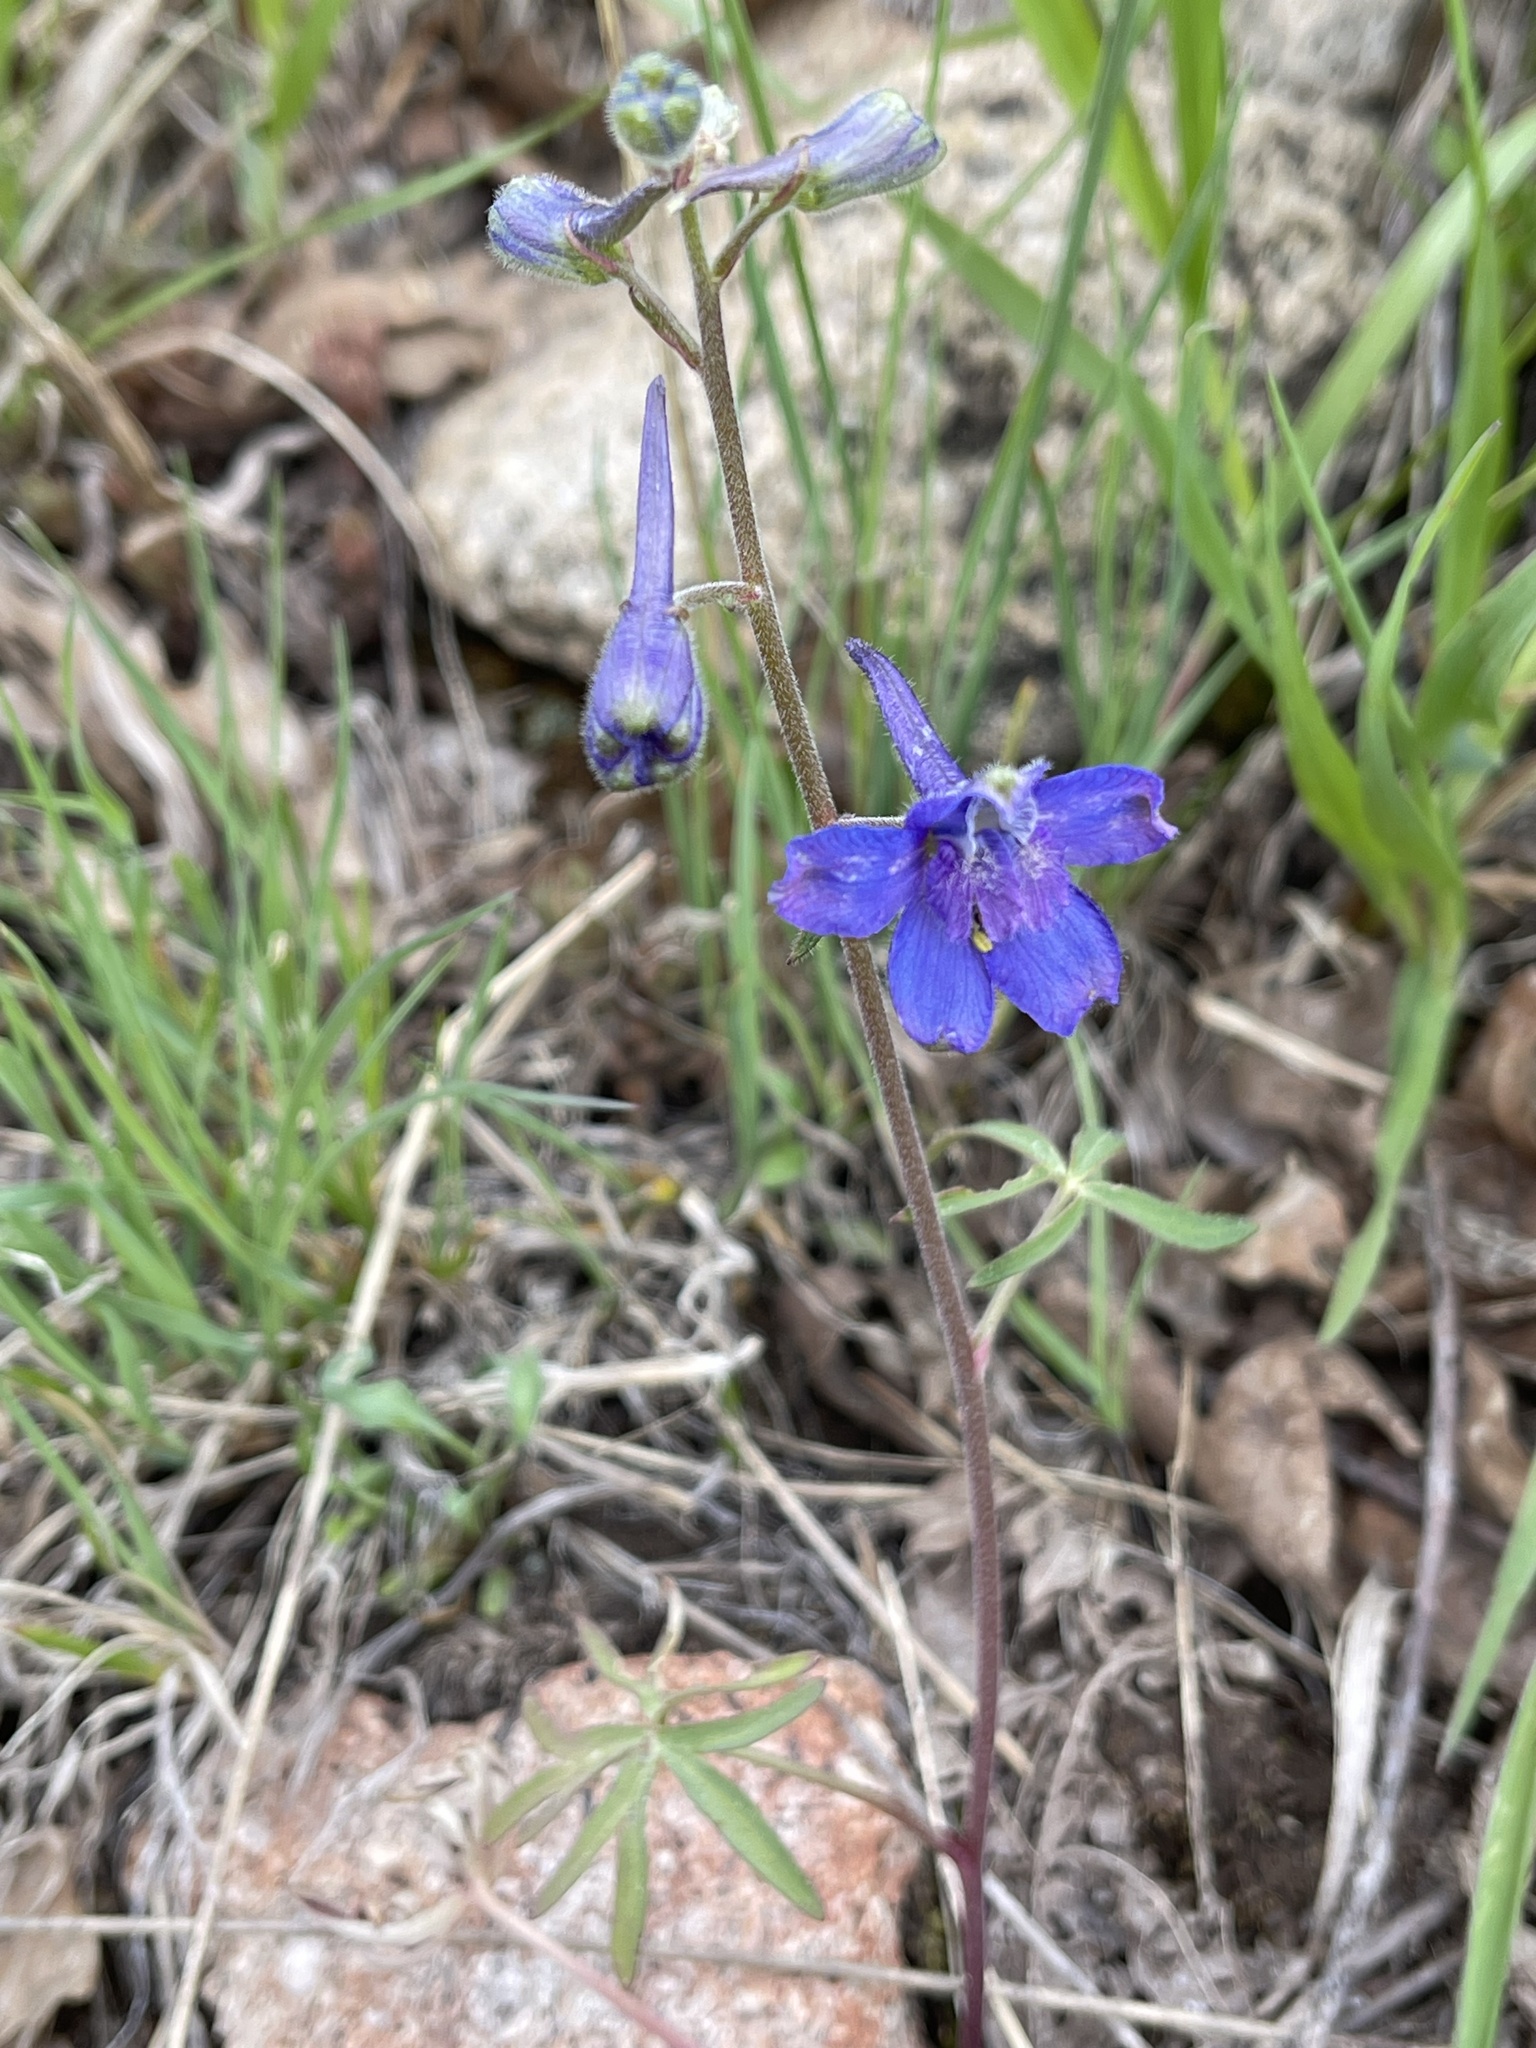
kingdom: Plantae
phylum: Tracheophyta
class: Magnoliopsida
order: Ranunculales
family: Ranunculaceae
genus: Delphinium
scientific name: Delphinium nuttallianum
